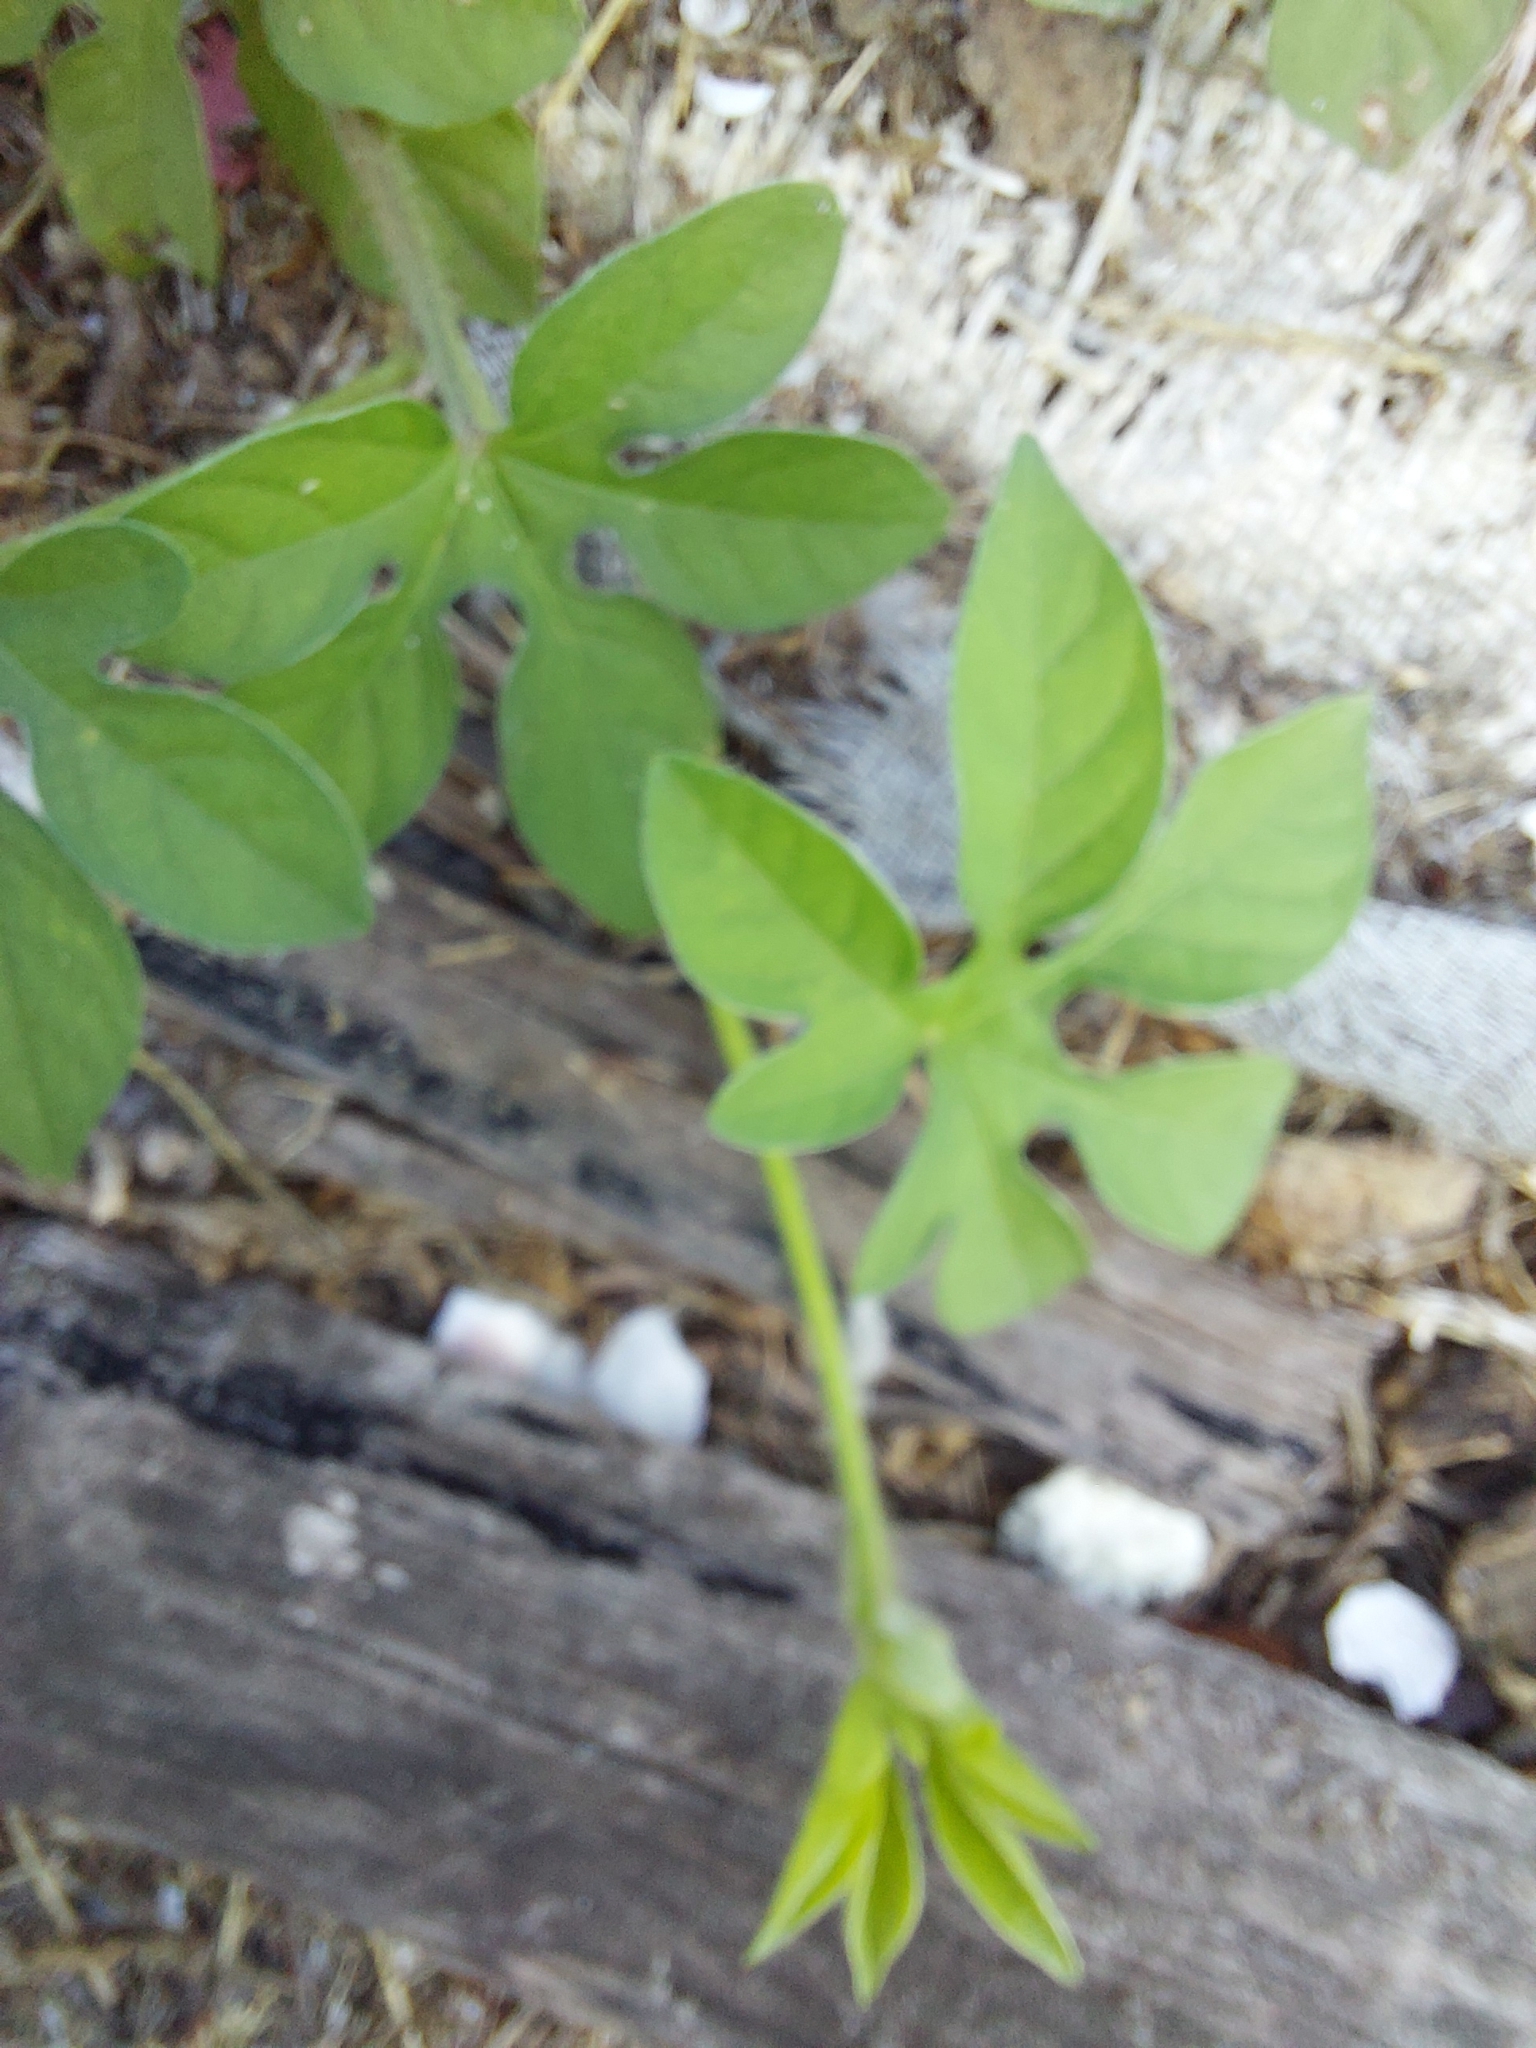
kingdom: Plantae
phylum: Tracheophyta
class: Magnoliopsida
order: Solanales
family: Convolvulaceae
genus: Ipomoea
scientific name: Ipomoea pes-tigridis
